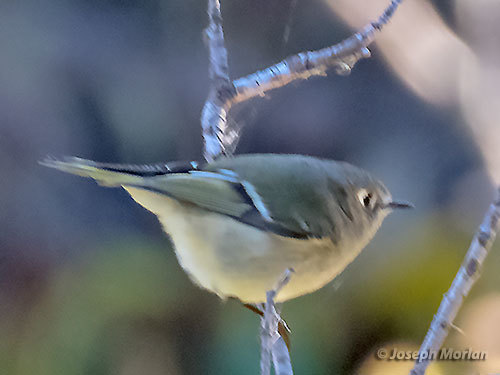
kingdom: Animalia
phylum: Chordata
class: Aves
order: Passeriformes
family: Regulidae
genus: Regulus
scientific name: Regulus calendula
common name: Ruby-crowned kinglet
